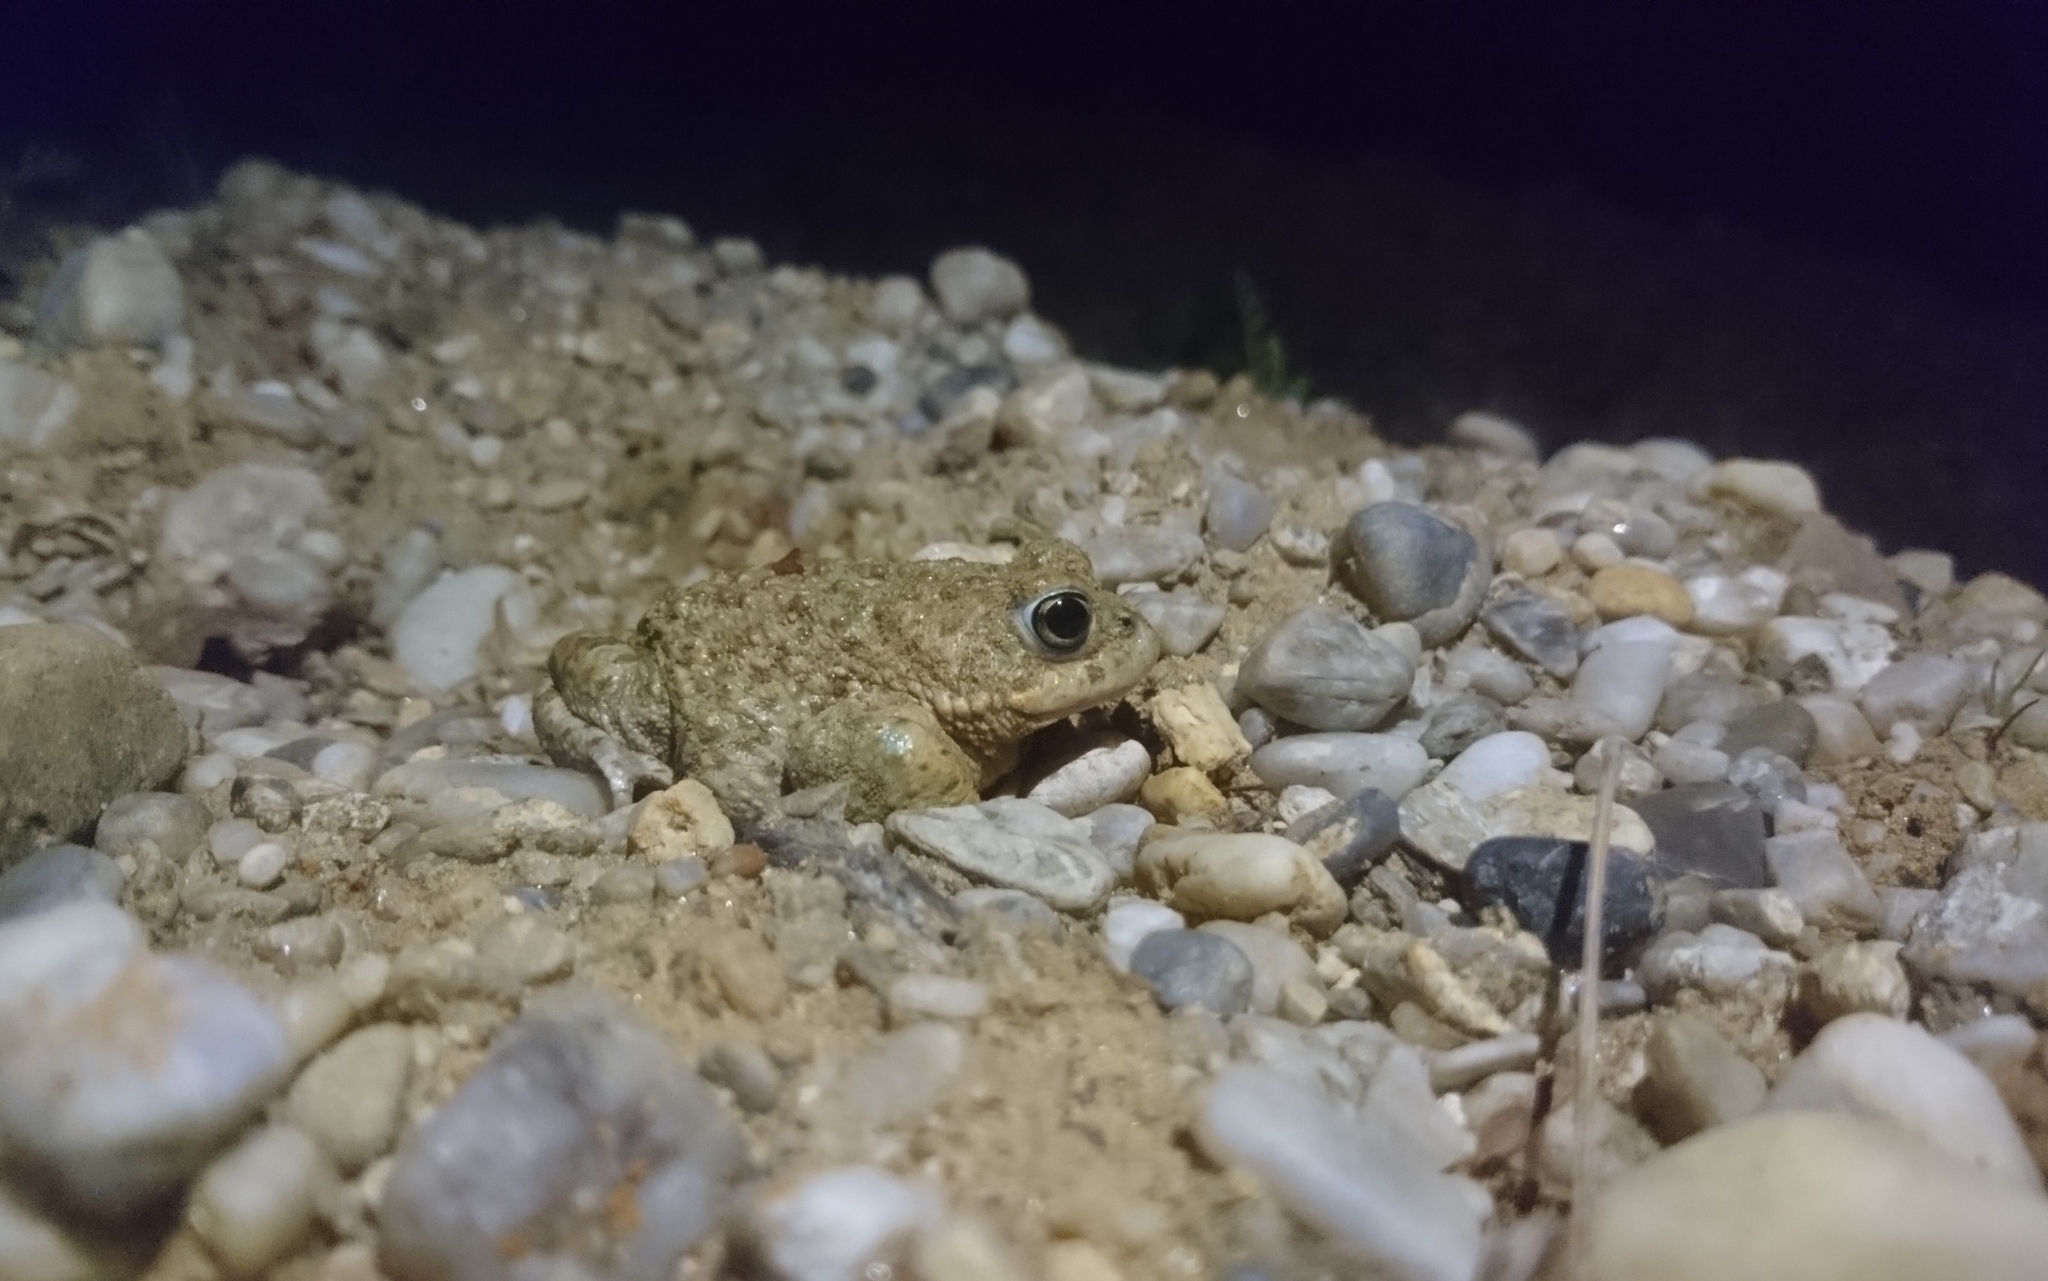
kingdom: Animalia
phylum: Chordata
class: Amphibia
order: Anura
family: Bufonidae
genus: Epidalea
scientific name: Epidalea calamita
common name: Natterjack toad
